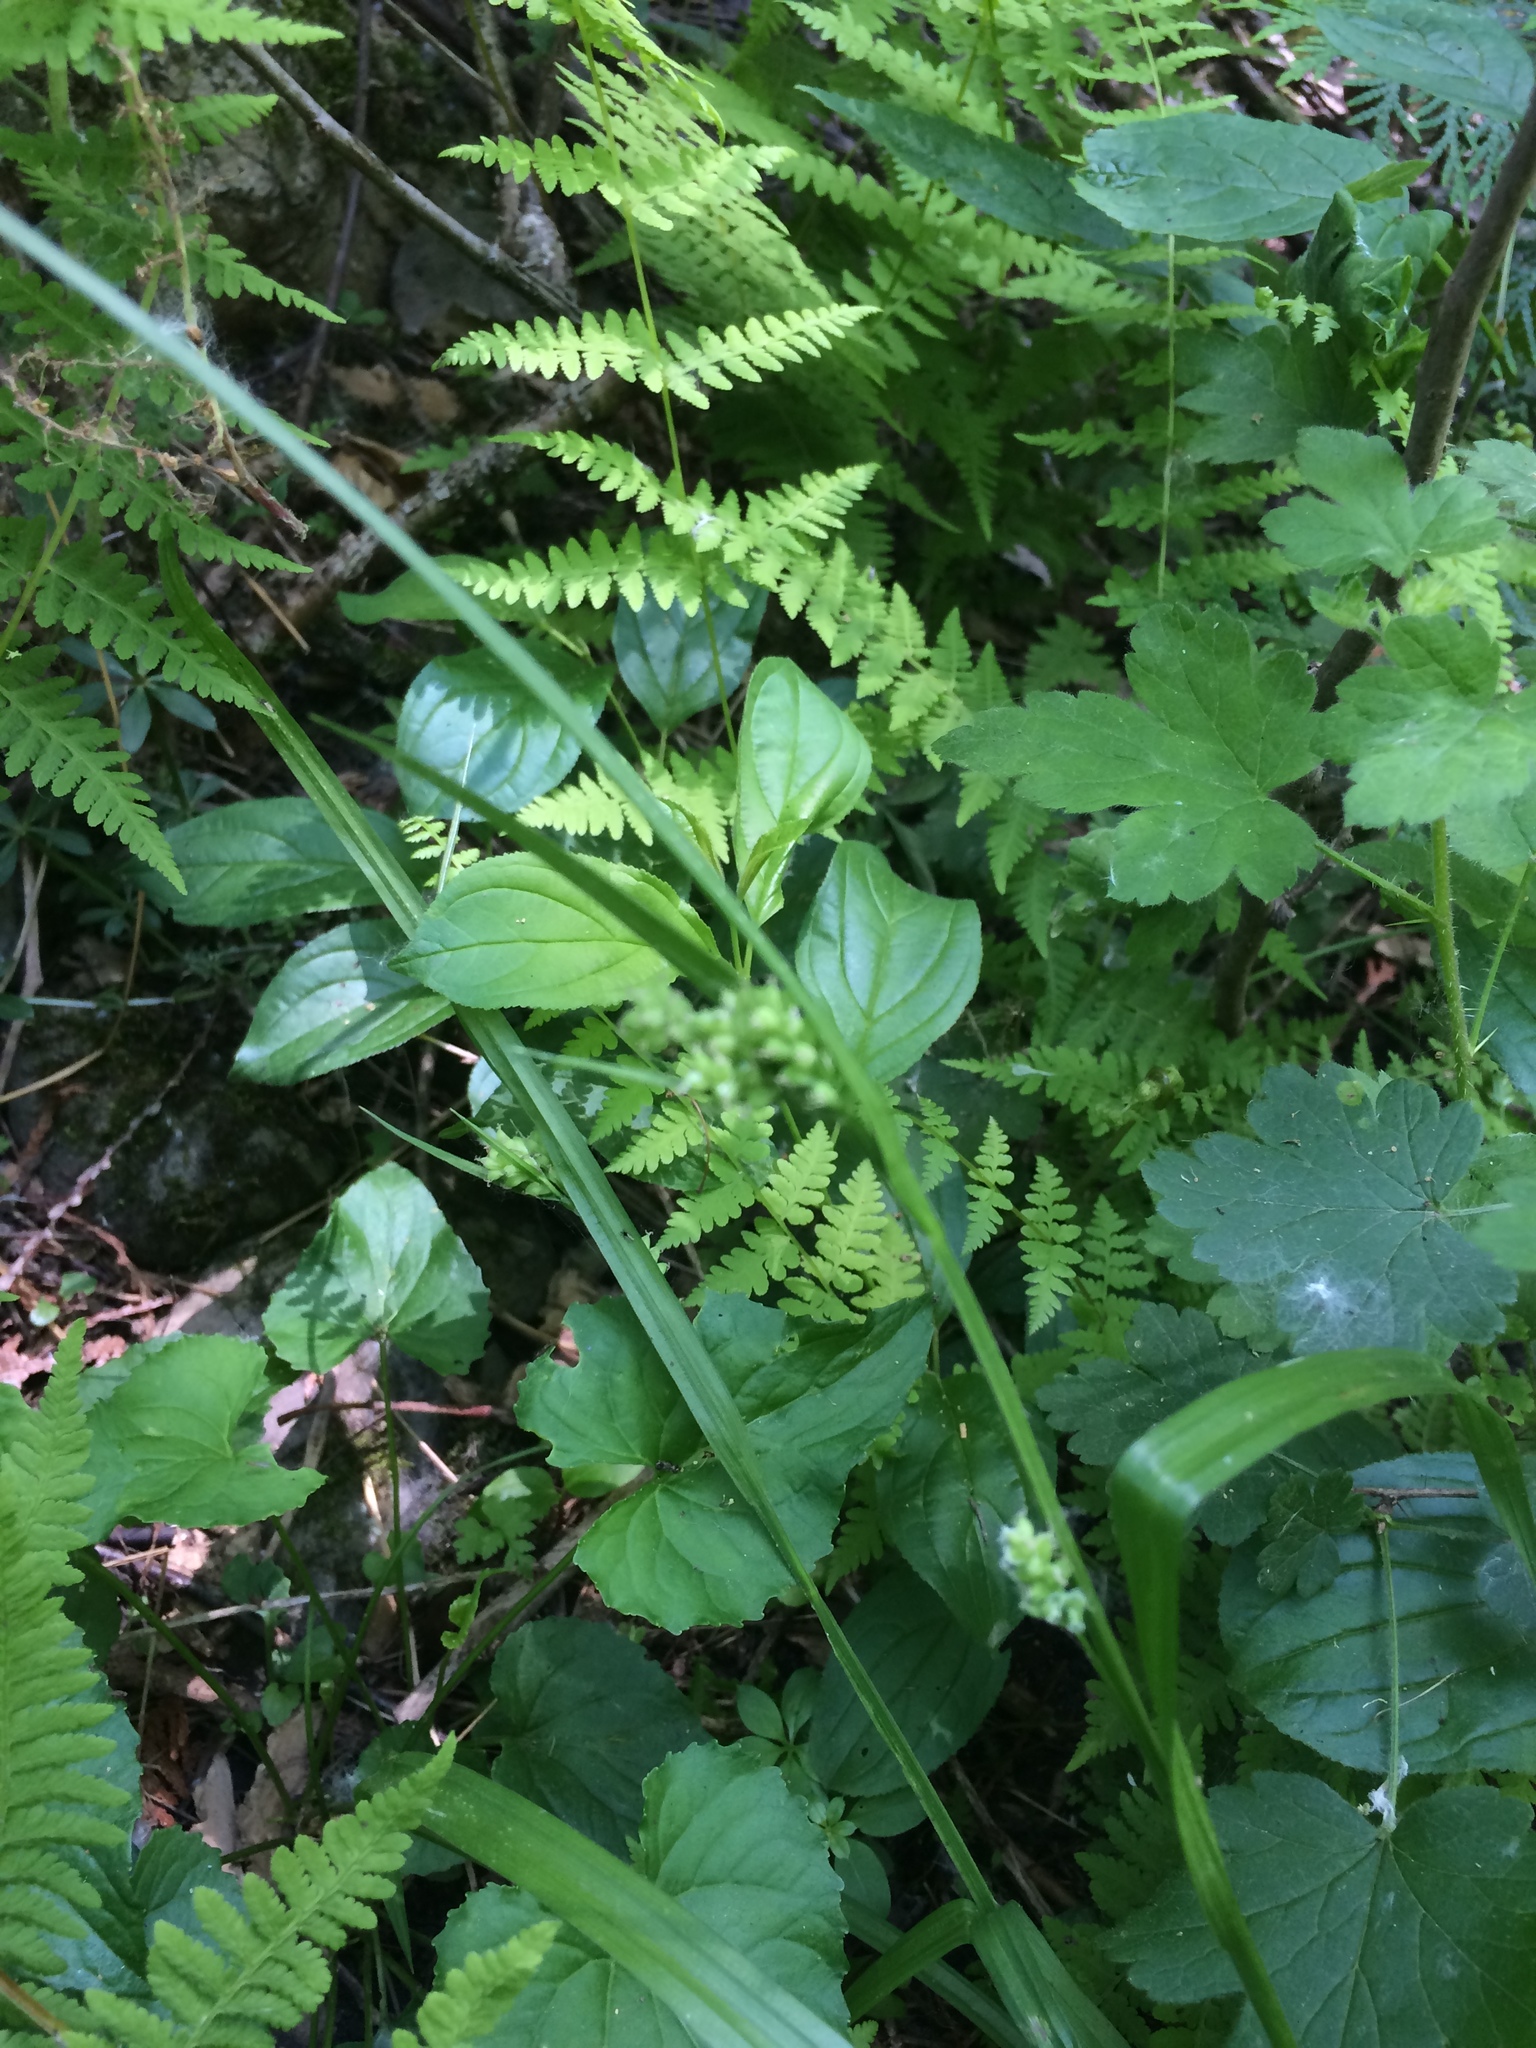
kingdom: Plantae
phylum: Tracheophyta
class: Polypodiopsida
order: Polypodiales
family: Cystopteridaceae
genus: Cystopteris
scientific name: Cystopteris bulbifera
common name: Bulblet bladder fern
